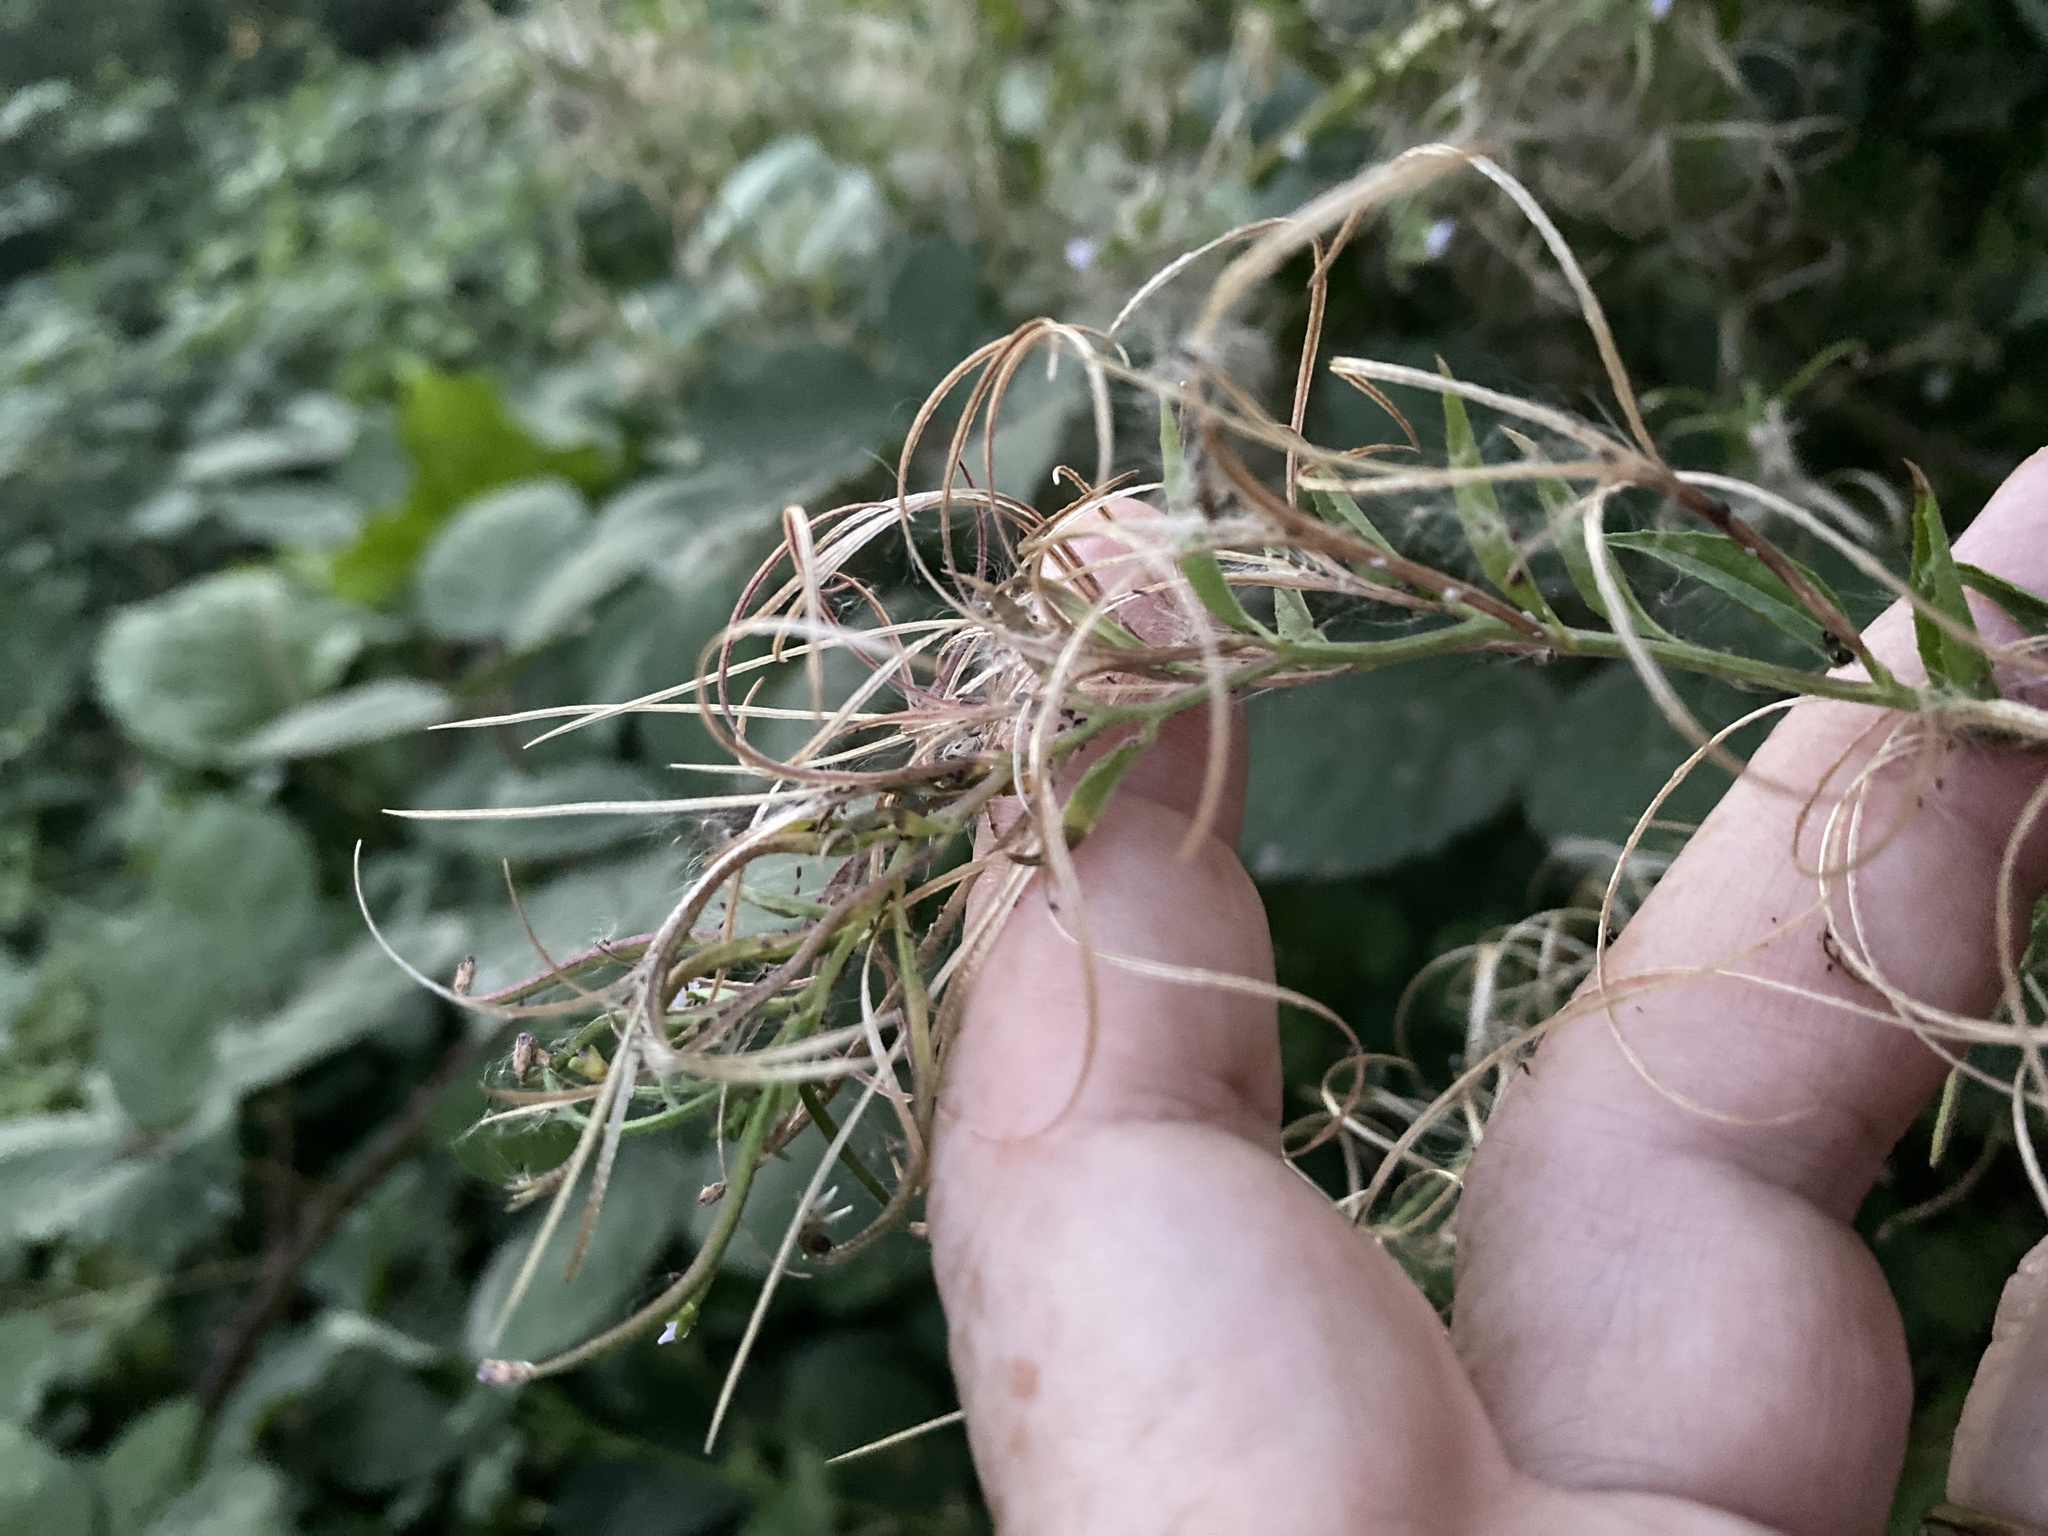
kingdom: Plantae
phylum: Tracheophyta
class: Magnoliopsida
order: Myrtales
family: Onagraceae
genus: Epilobium
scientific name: Epilobium ciliatum
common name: American willowherb
